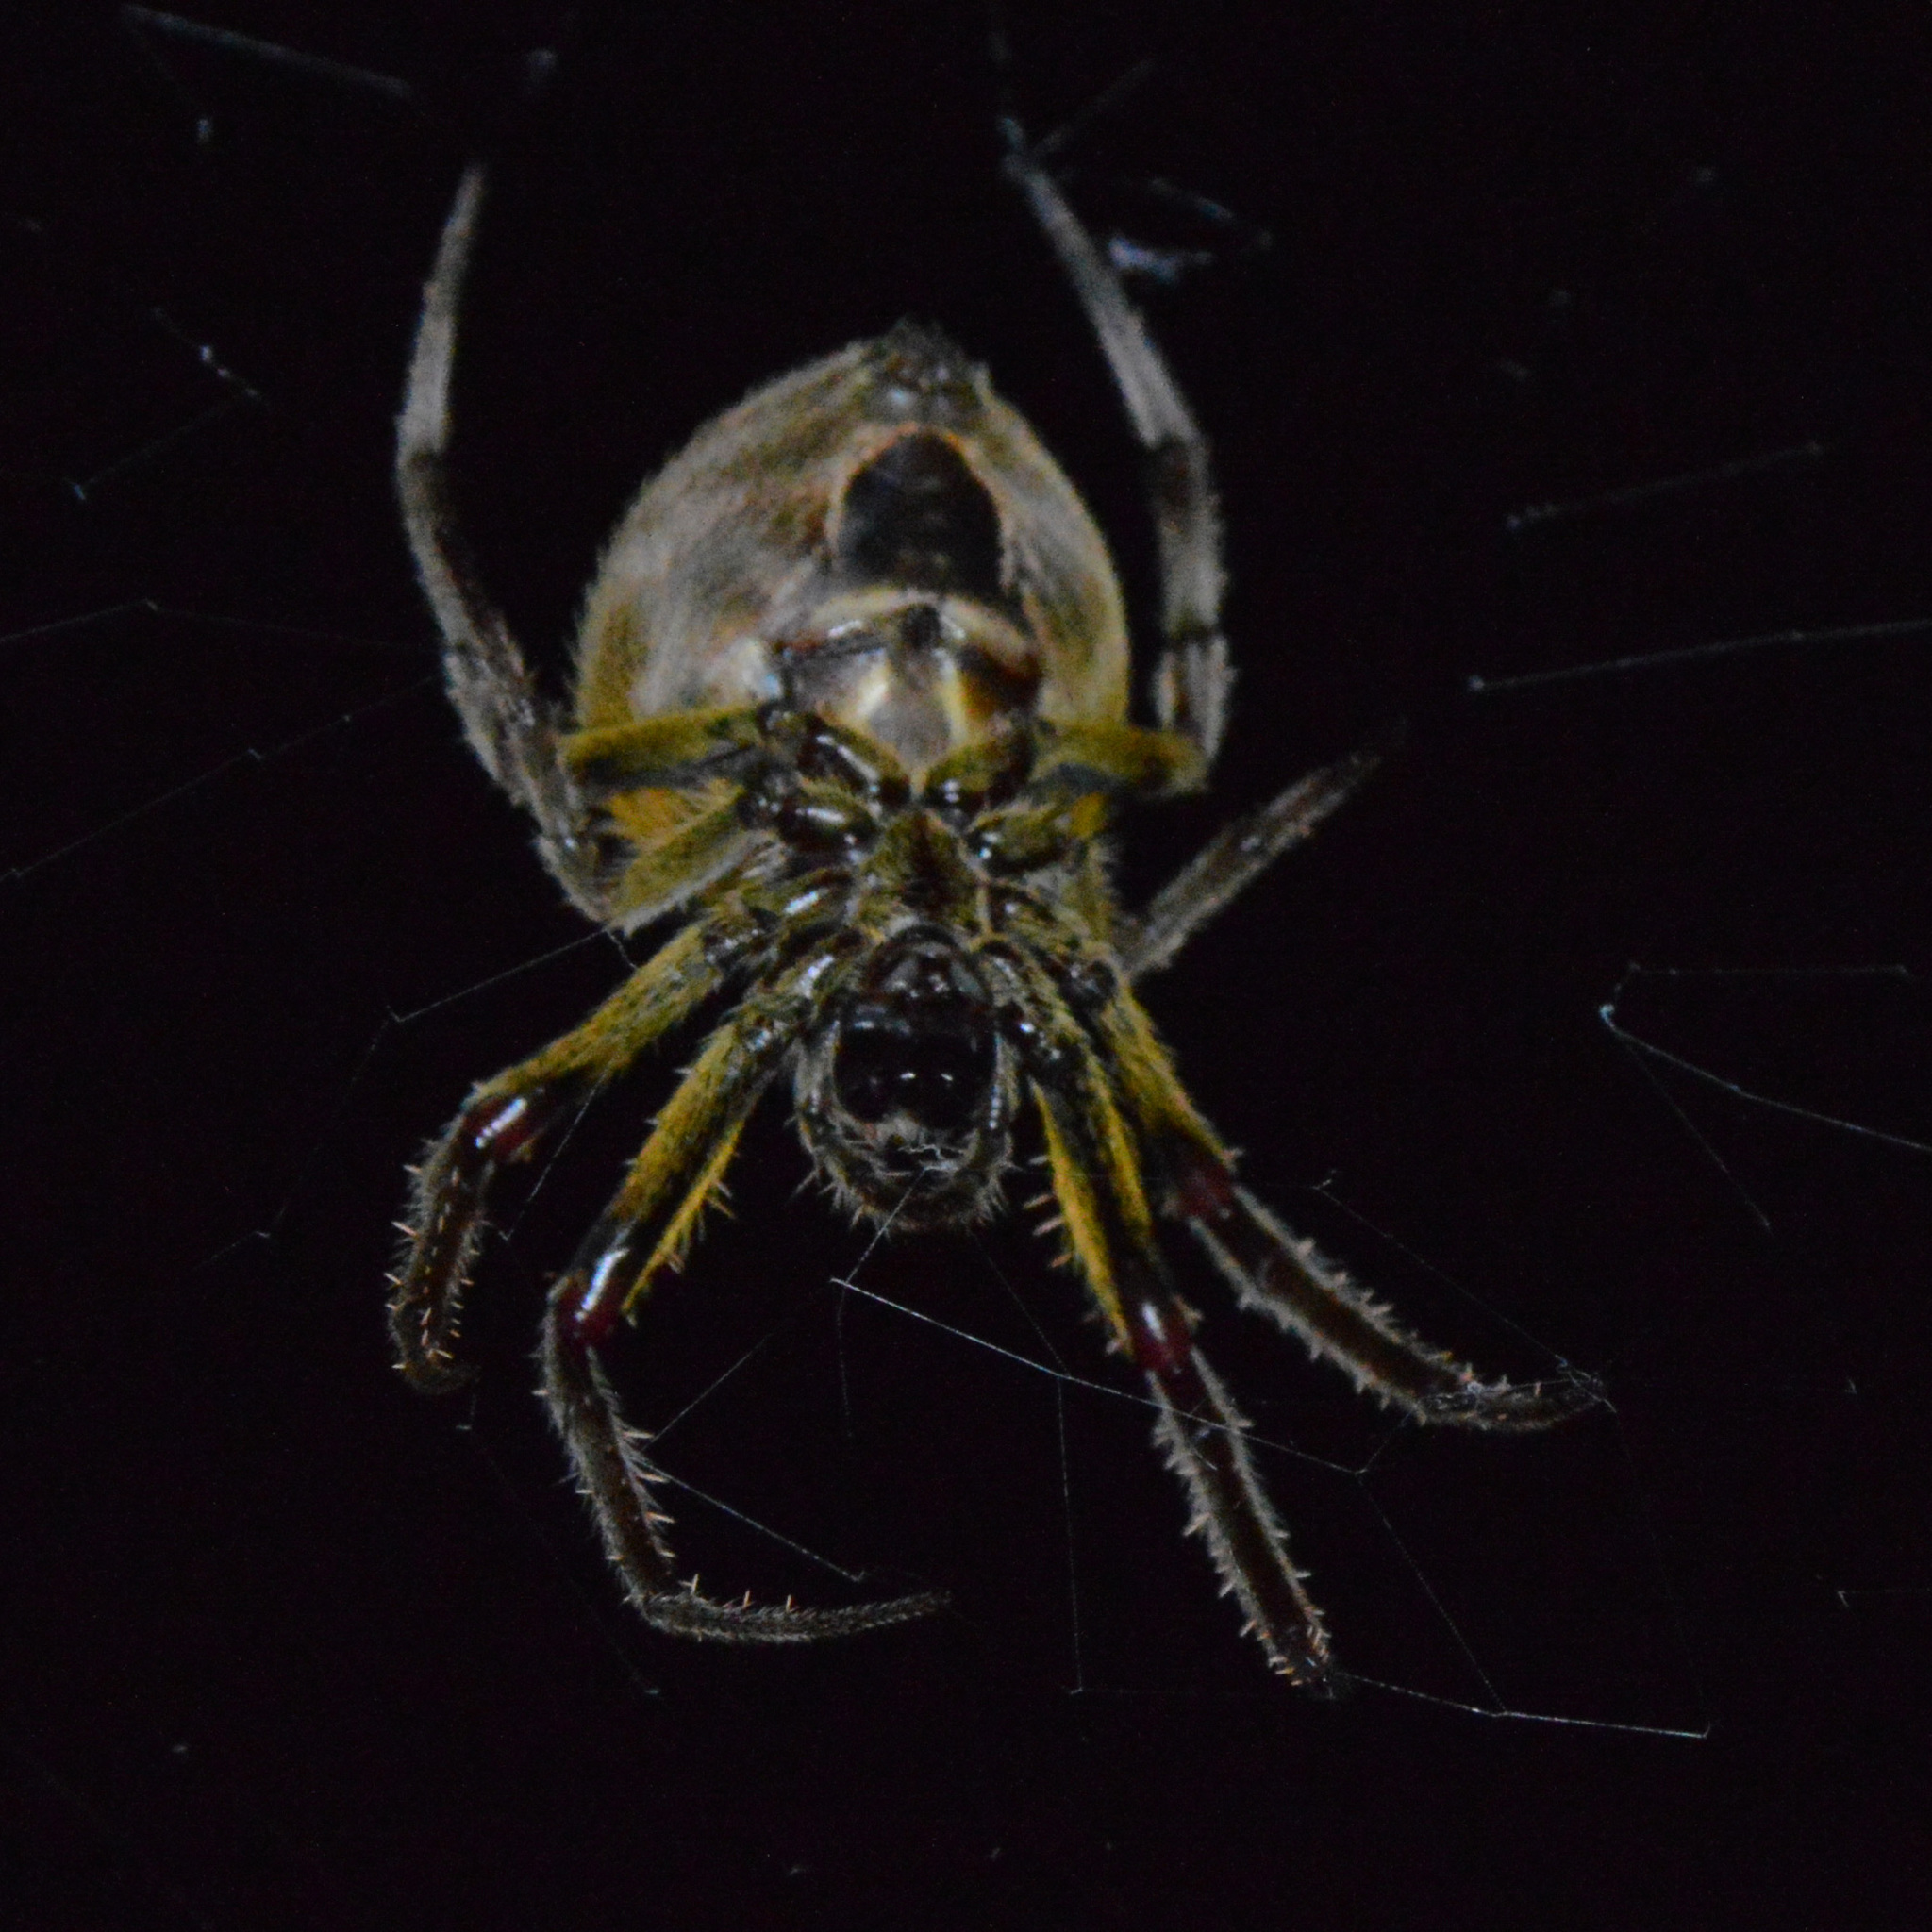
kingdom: Animalia
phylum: Arthropoda
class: Arachnida
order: Araneae
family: Araneidae
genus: Eriophora
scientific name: Eriophora ravilla
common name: Orb weavers
